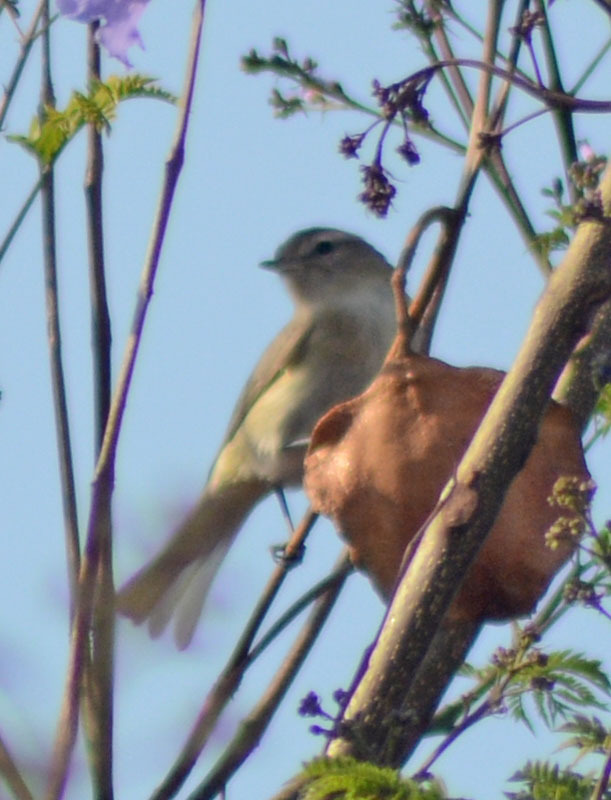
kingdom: Animalia
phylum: Chordata
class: Aves
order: Passeriformes
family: Vireonidae
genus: Vireo
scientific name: Vireo gilvus
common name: Warbling vireo
